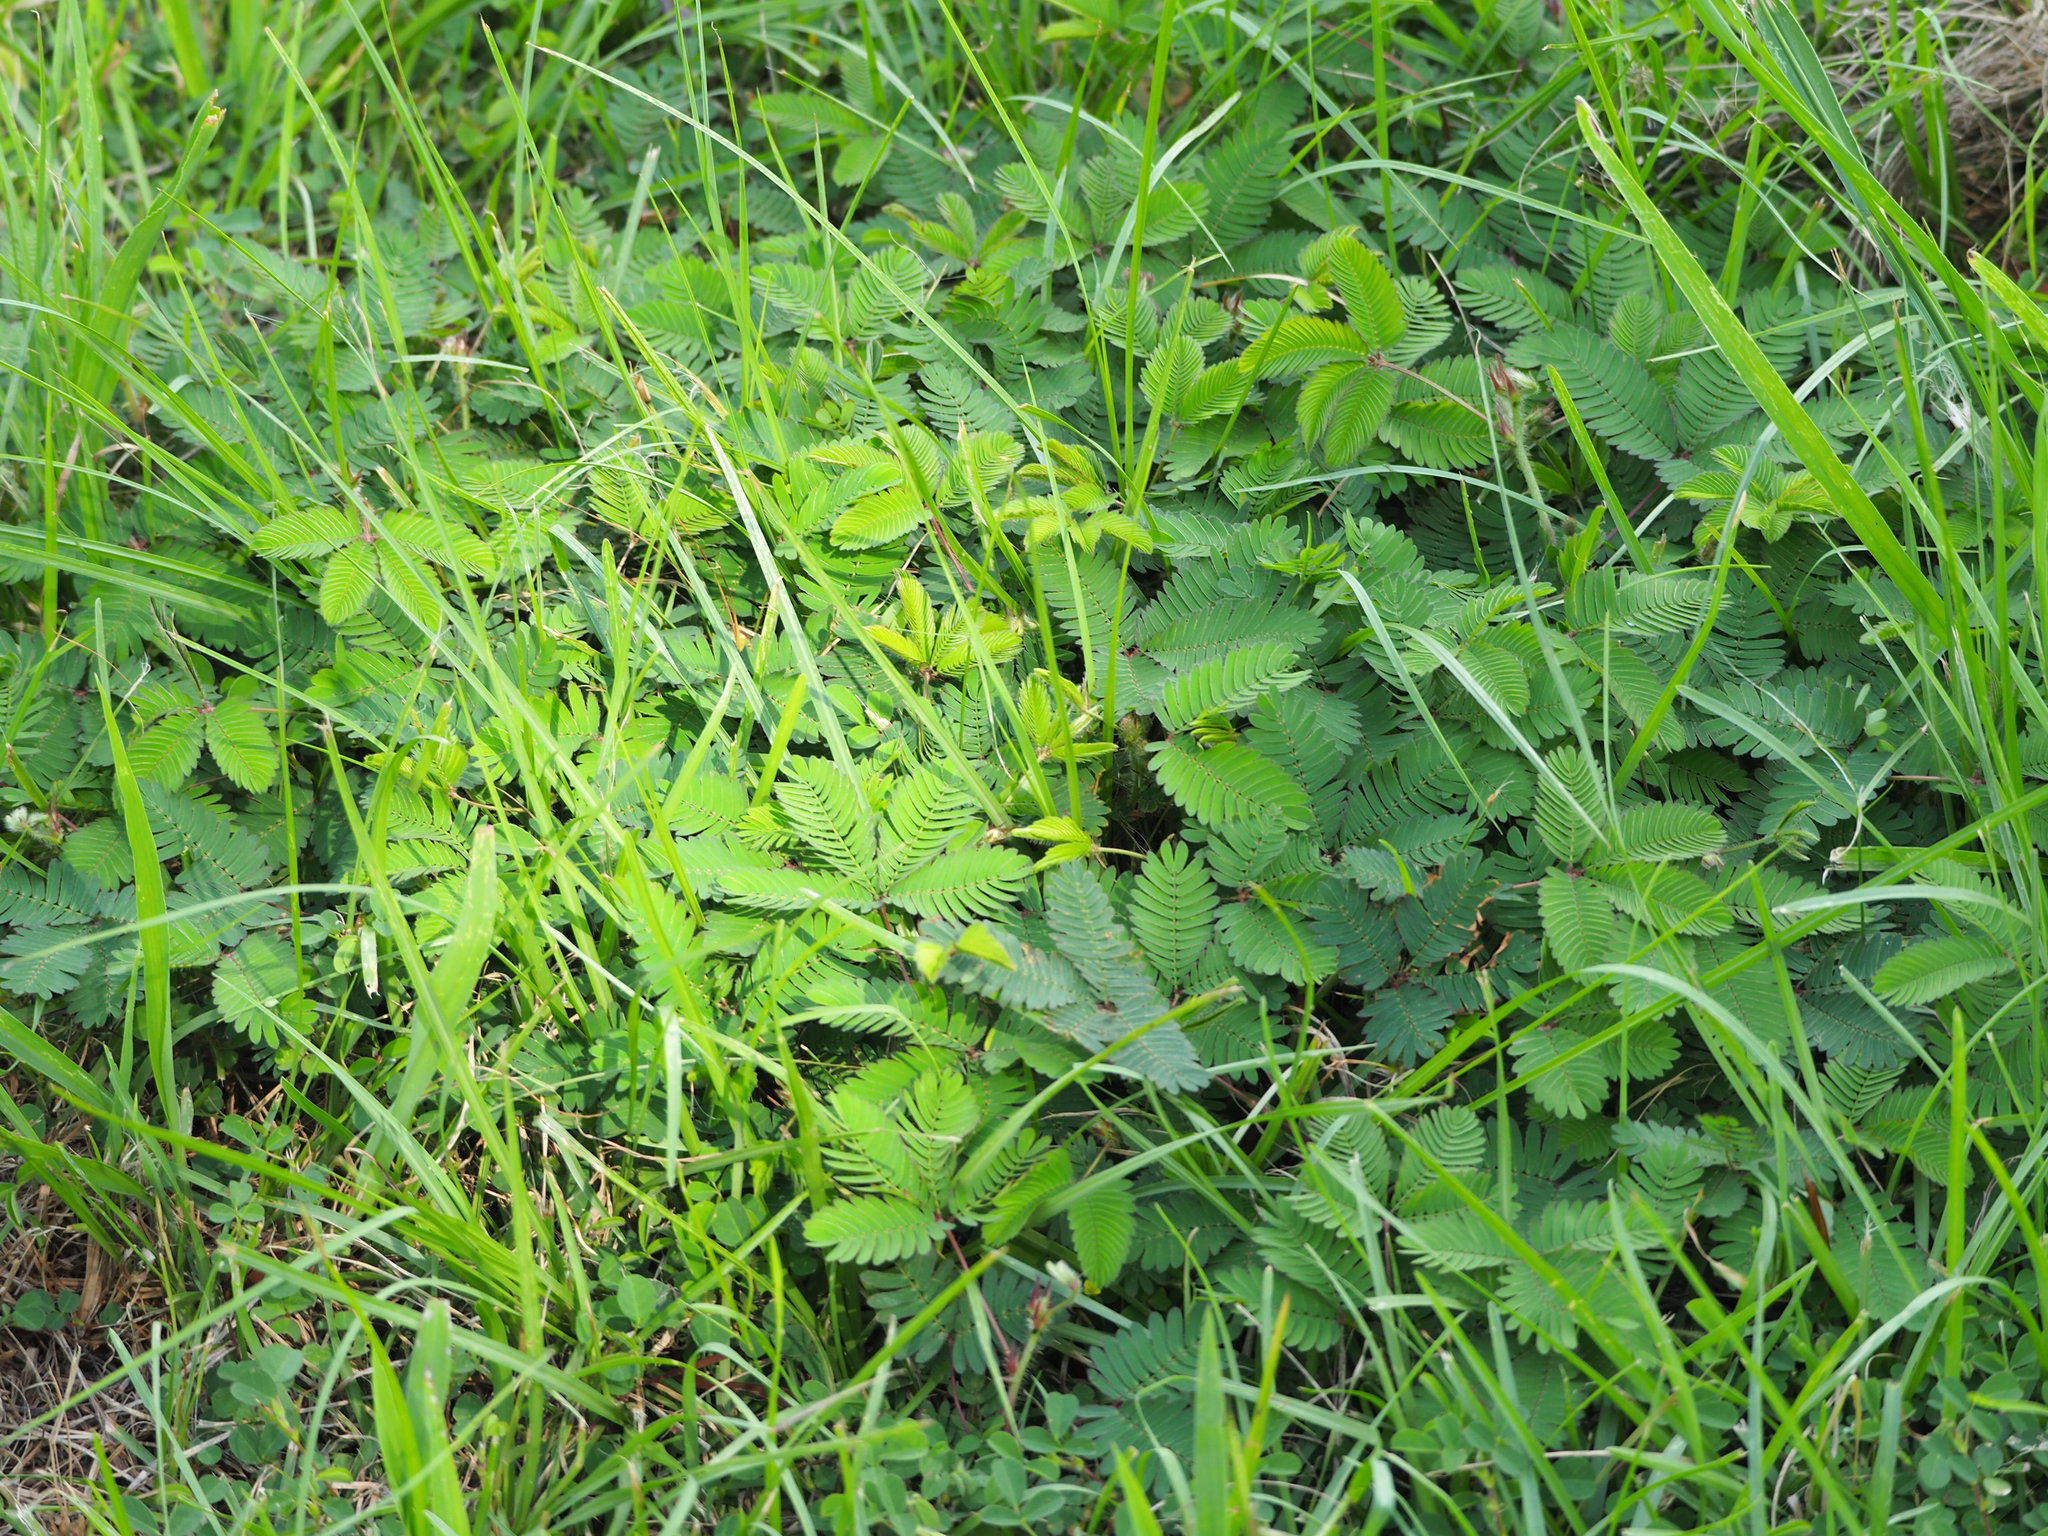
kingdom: Plantae
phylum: Tracheophyta
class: Magnoliopsida
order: Fabales
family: Fabaceae
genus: Mimosa
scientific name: Mimosa pudica
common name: Sensitive plant
